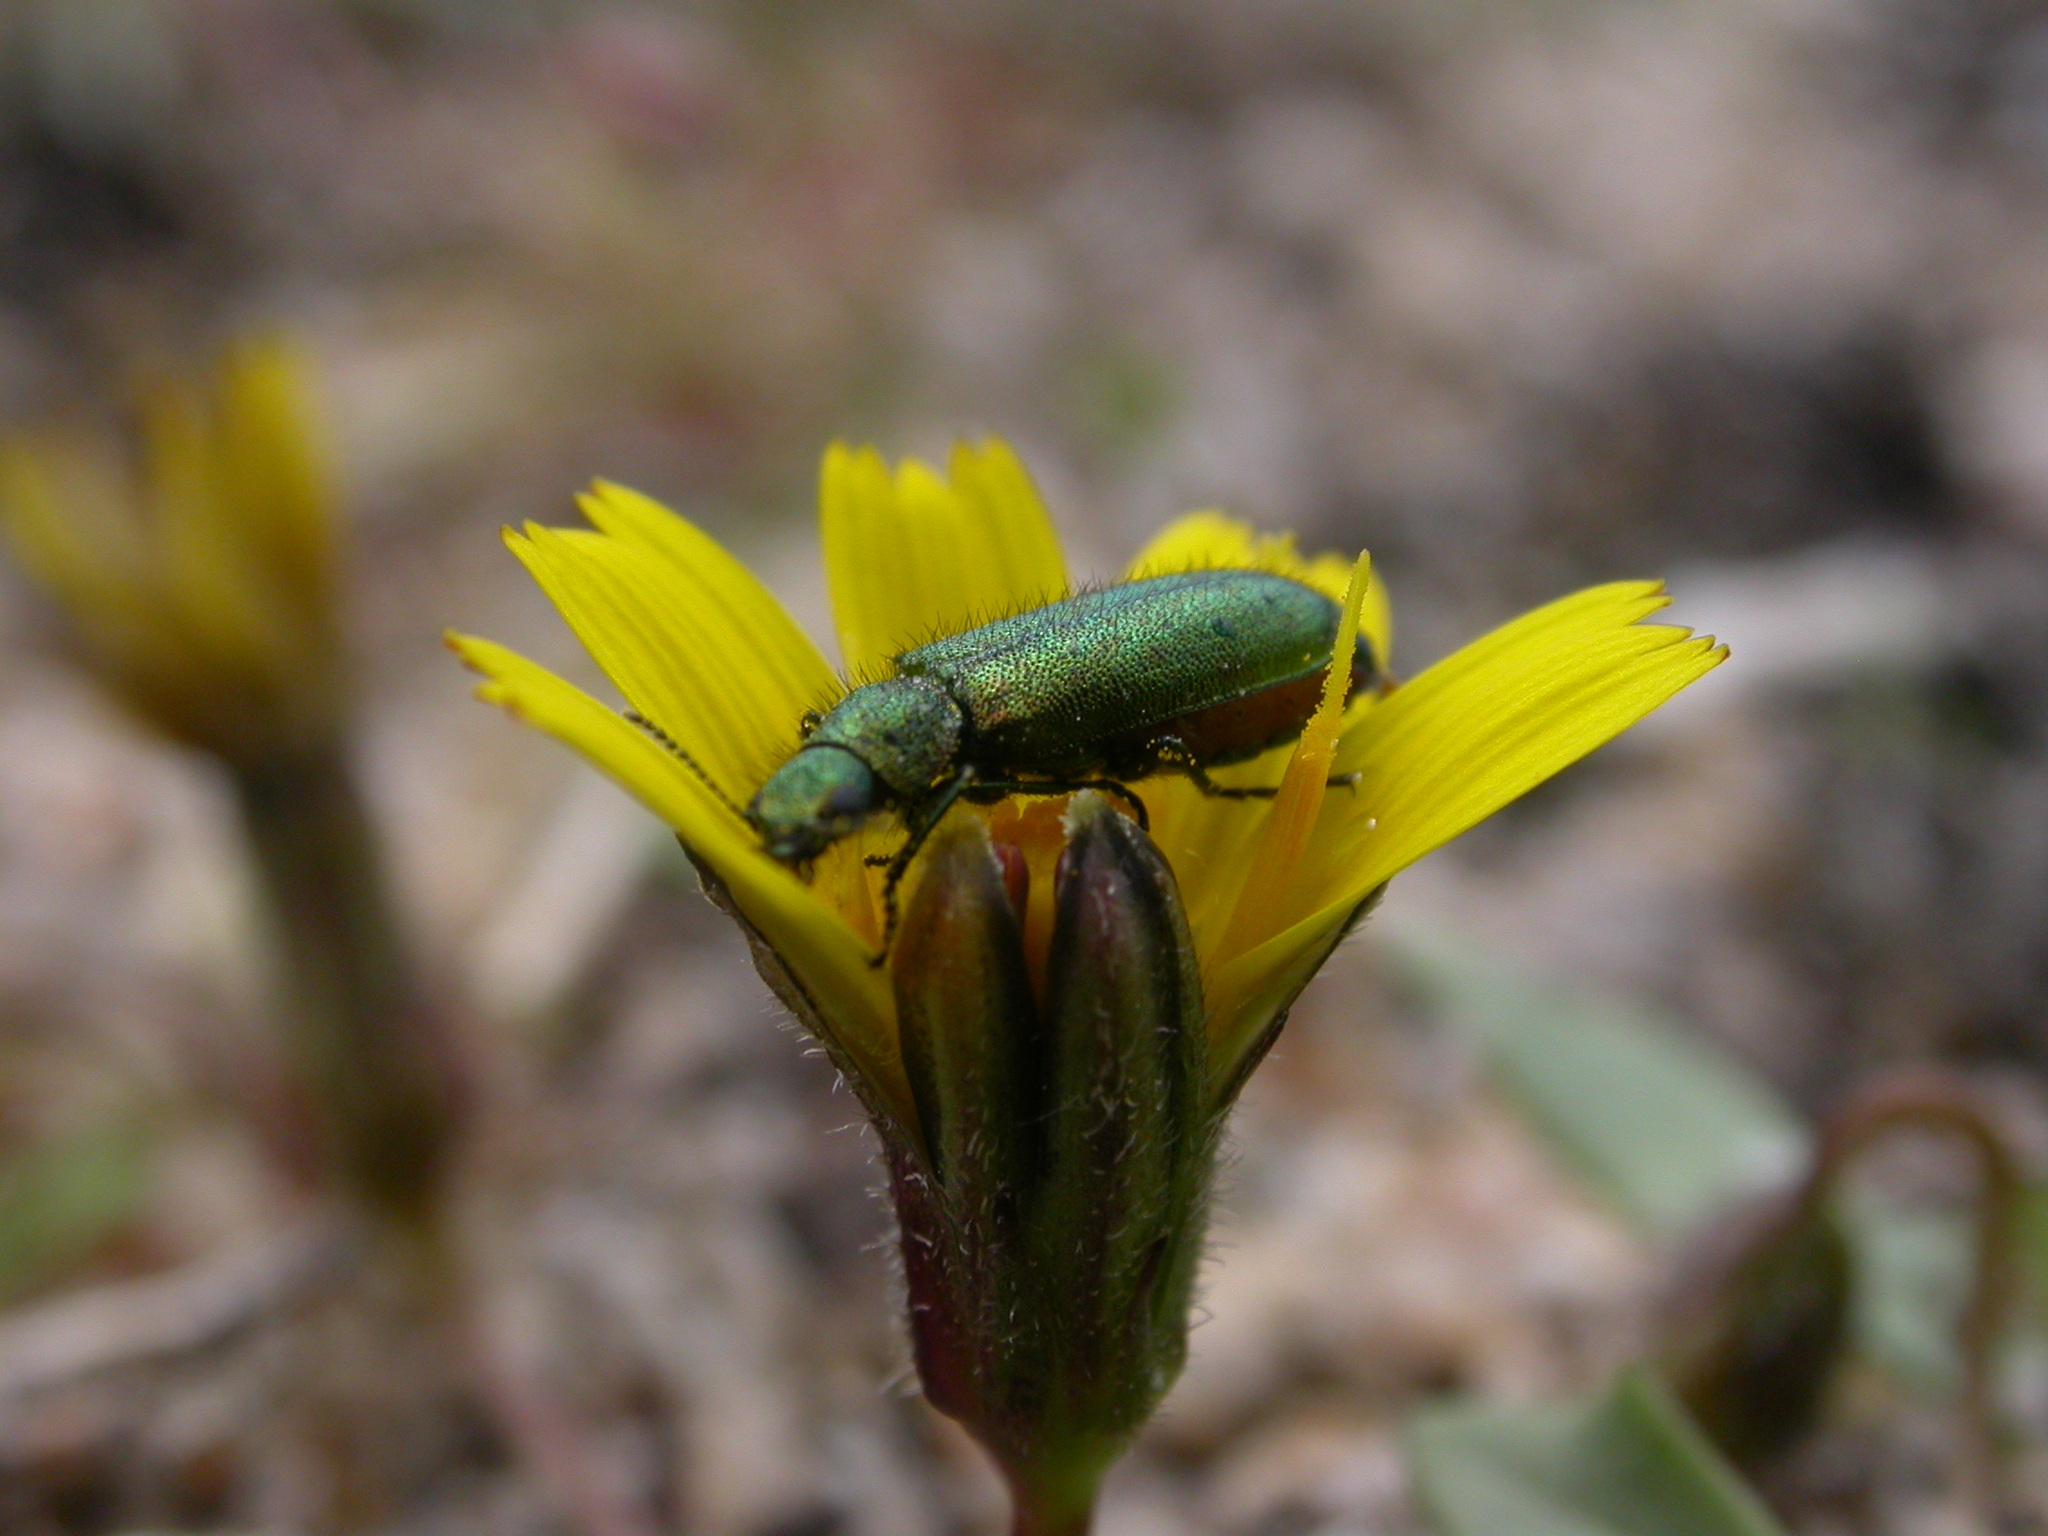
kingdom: Animalia
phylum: Arthropoda
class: Insecta
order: Coleoptera
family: Dasytidae
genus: Psilothrix
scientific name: Psilothrix viridicoerulea
